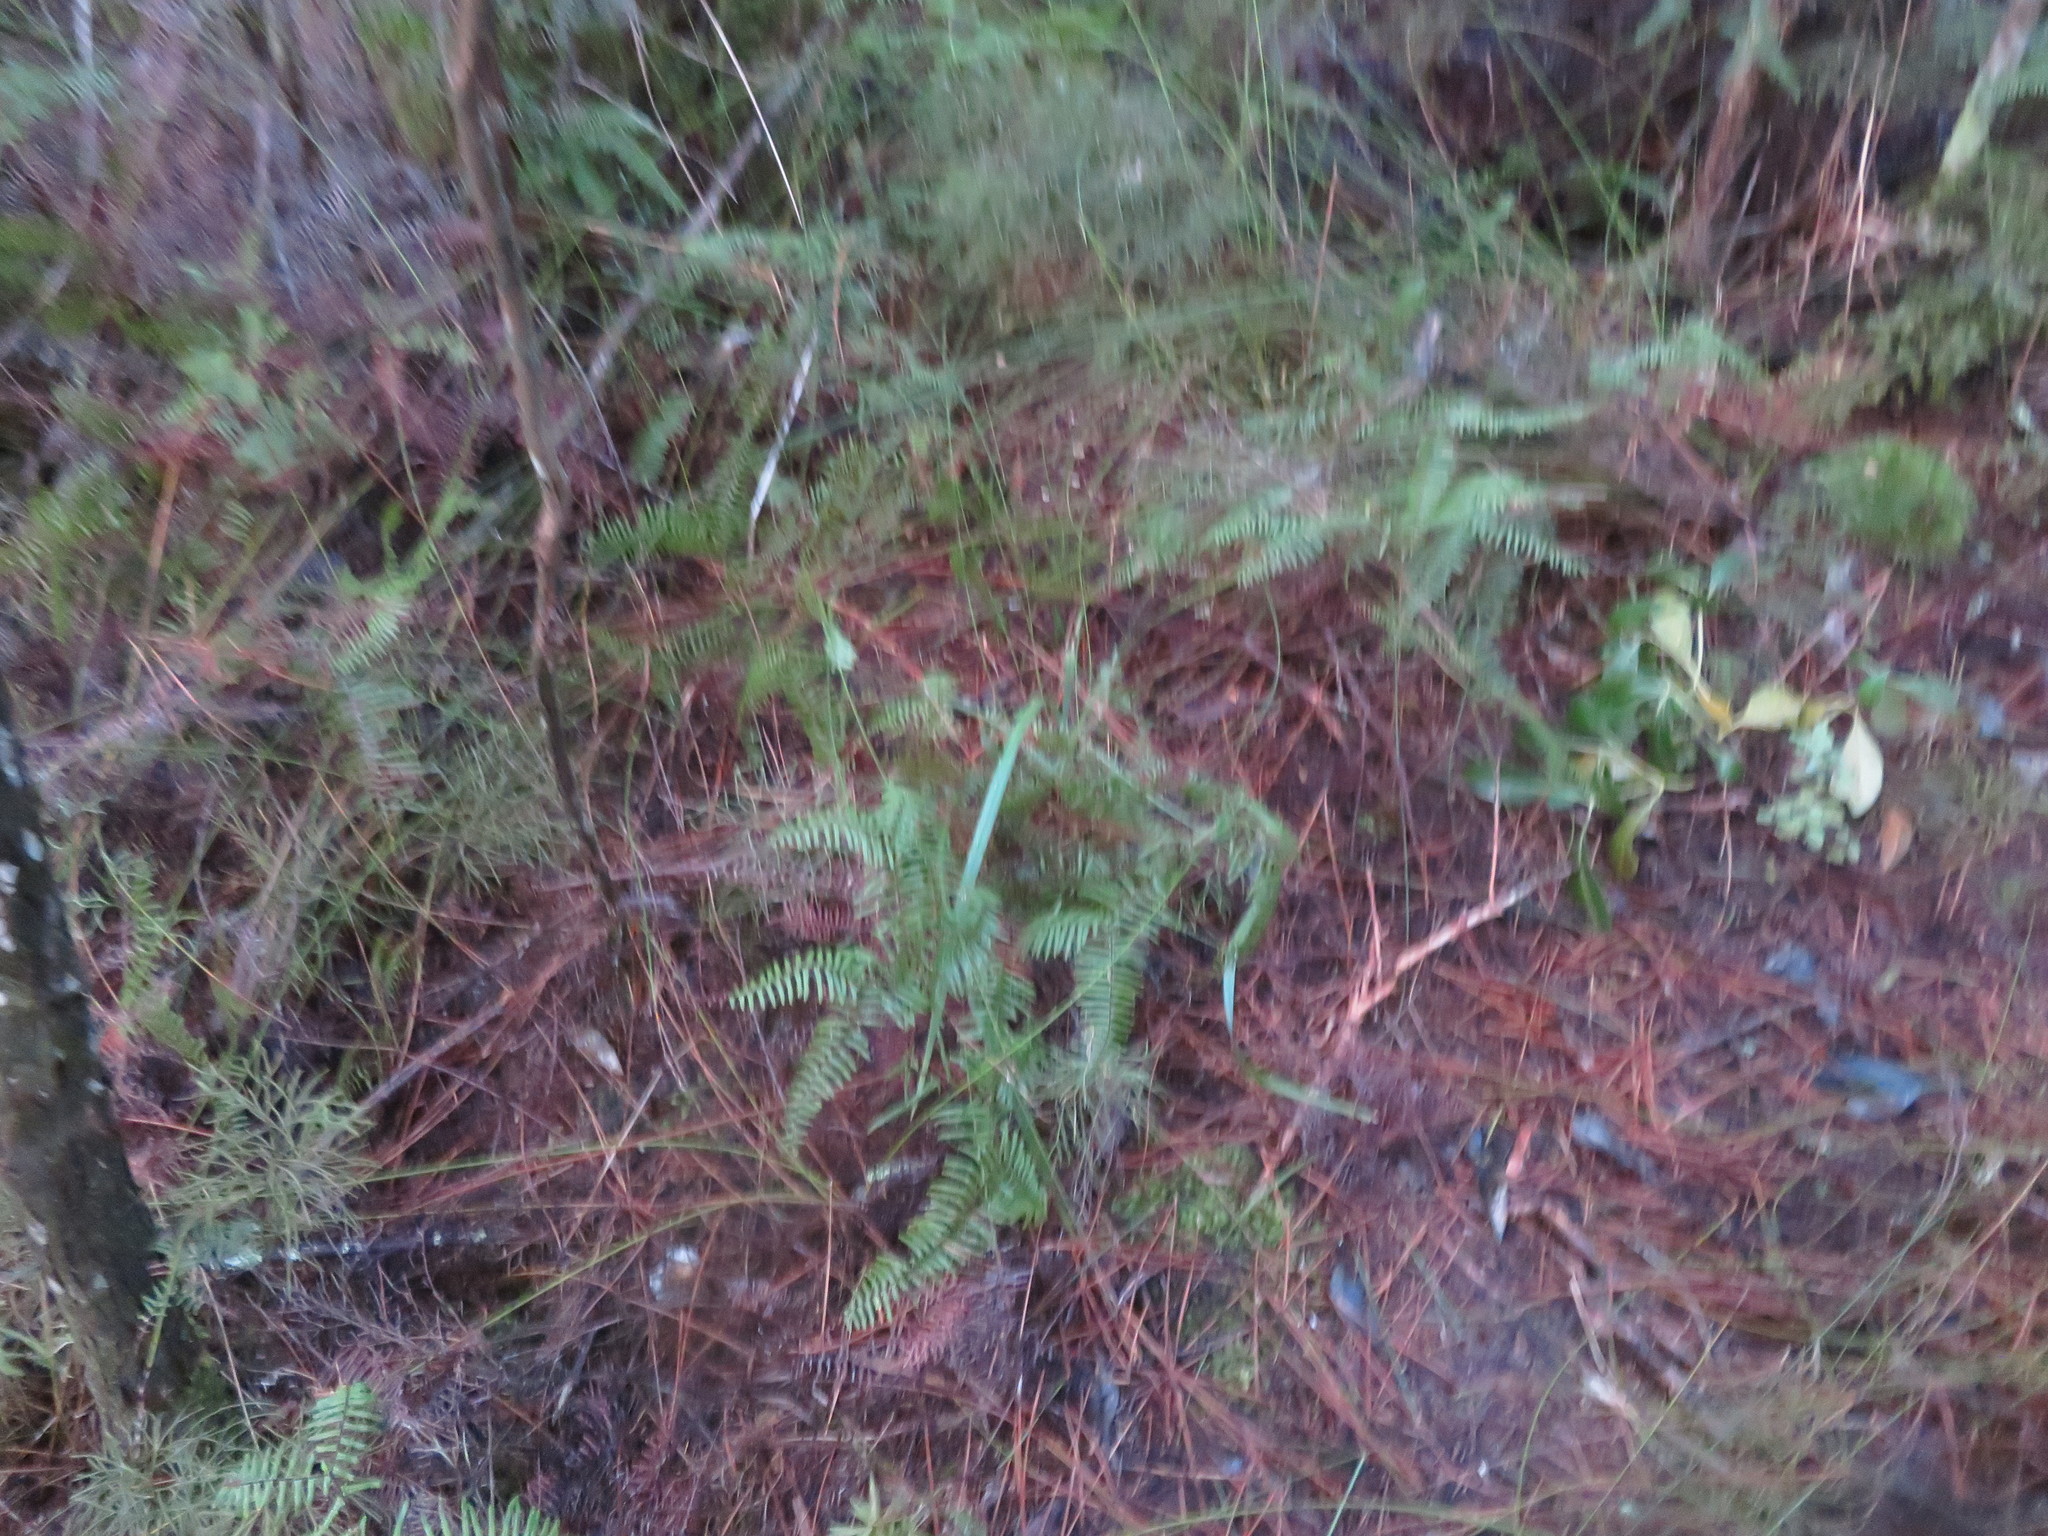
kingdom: Plantae
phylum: Tracheophyta
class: Lycopodiopsida
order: Lycopodiales
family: Lycopodiaceae
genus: Pseudolycopodium
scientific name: Pseudolycopodium densum
